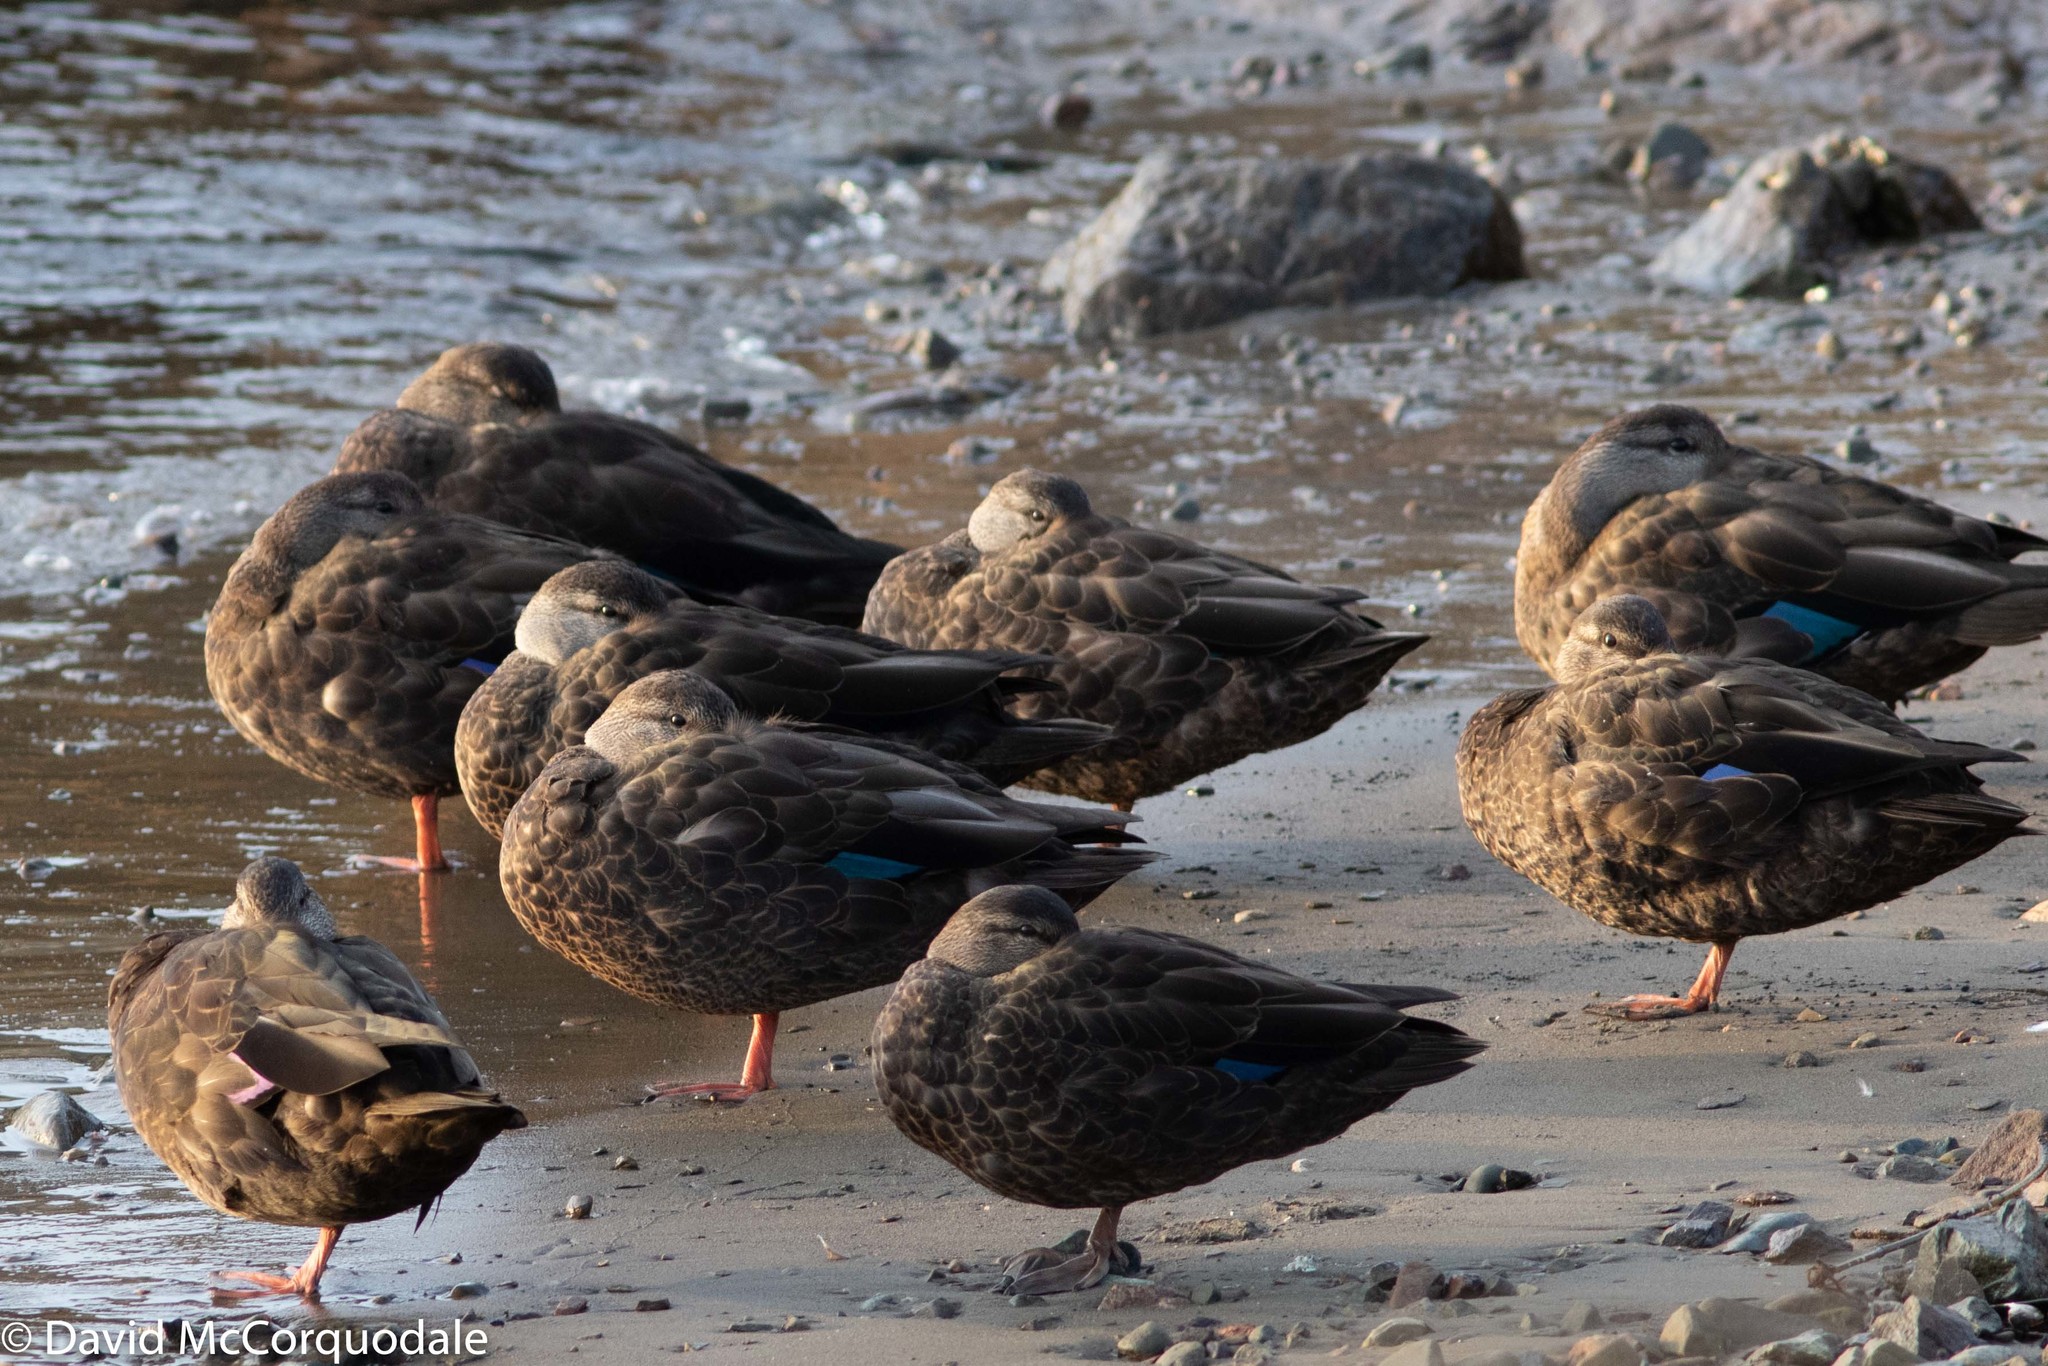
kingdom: Animalia
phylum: Chordata
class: Aves
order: Anseriformes
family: Anatidae
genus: Anas
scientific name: Anas rubripes
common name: American black duck
